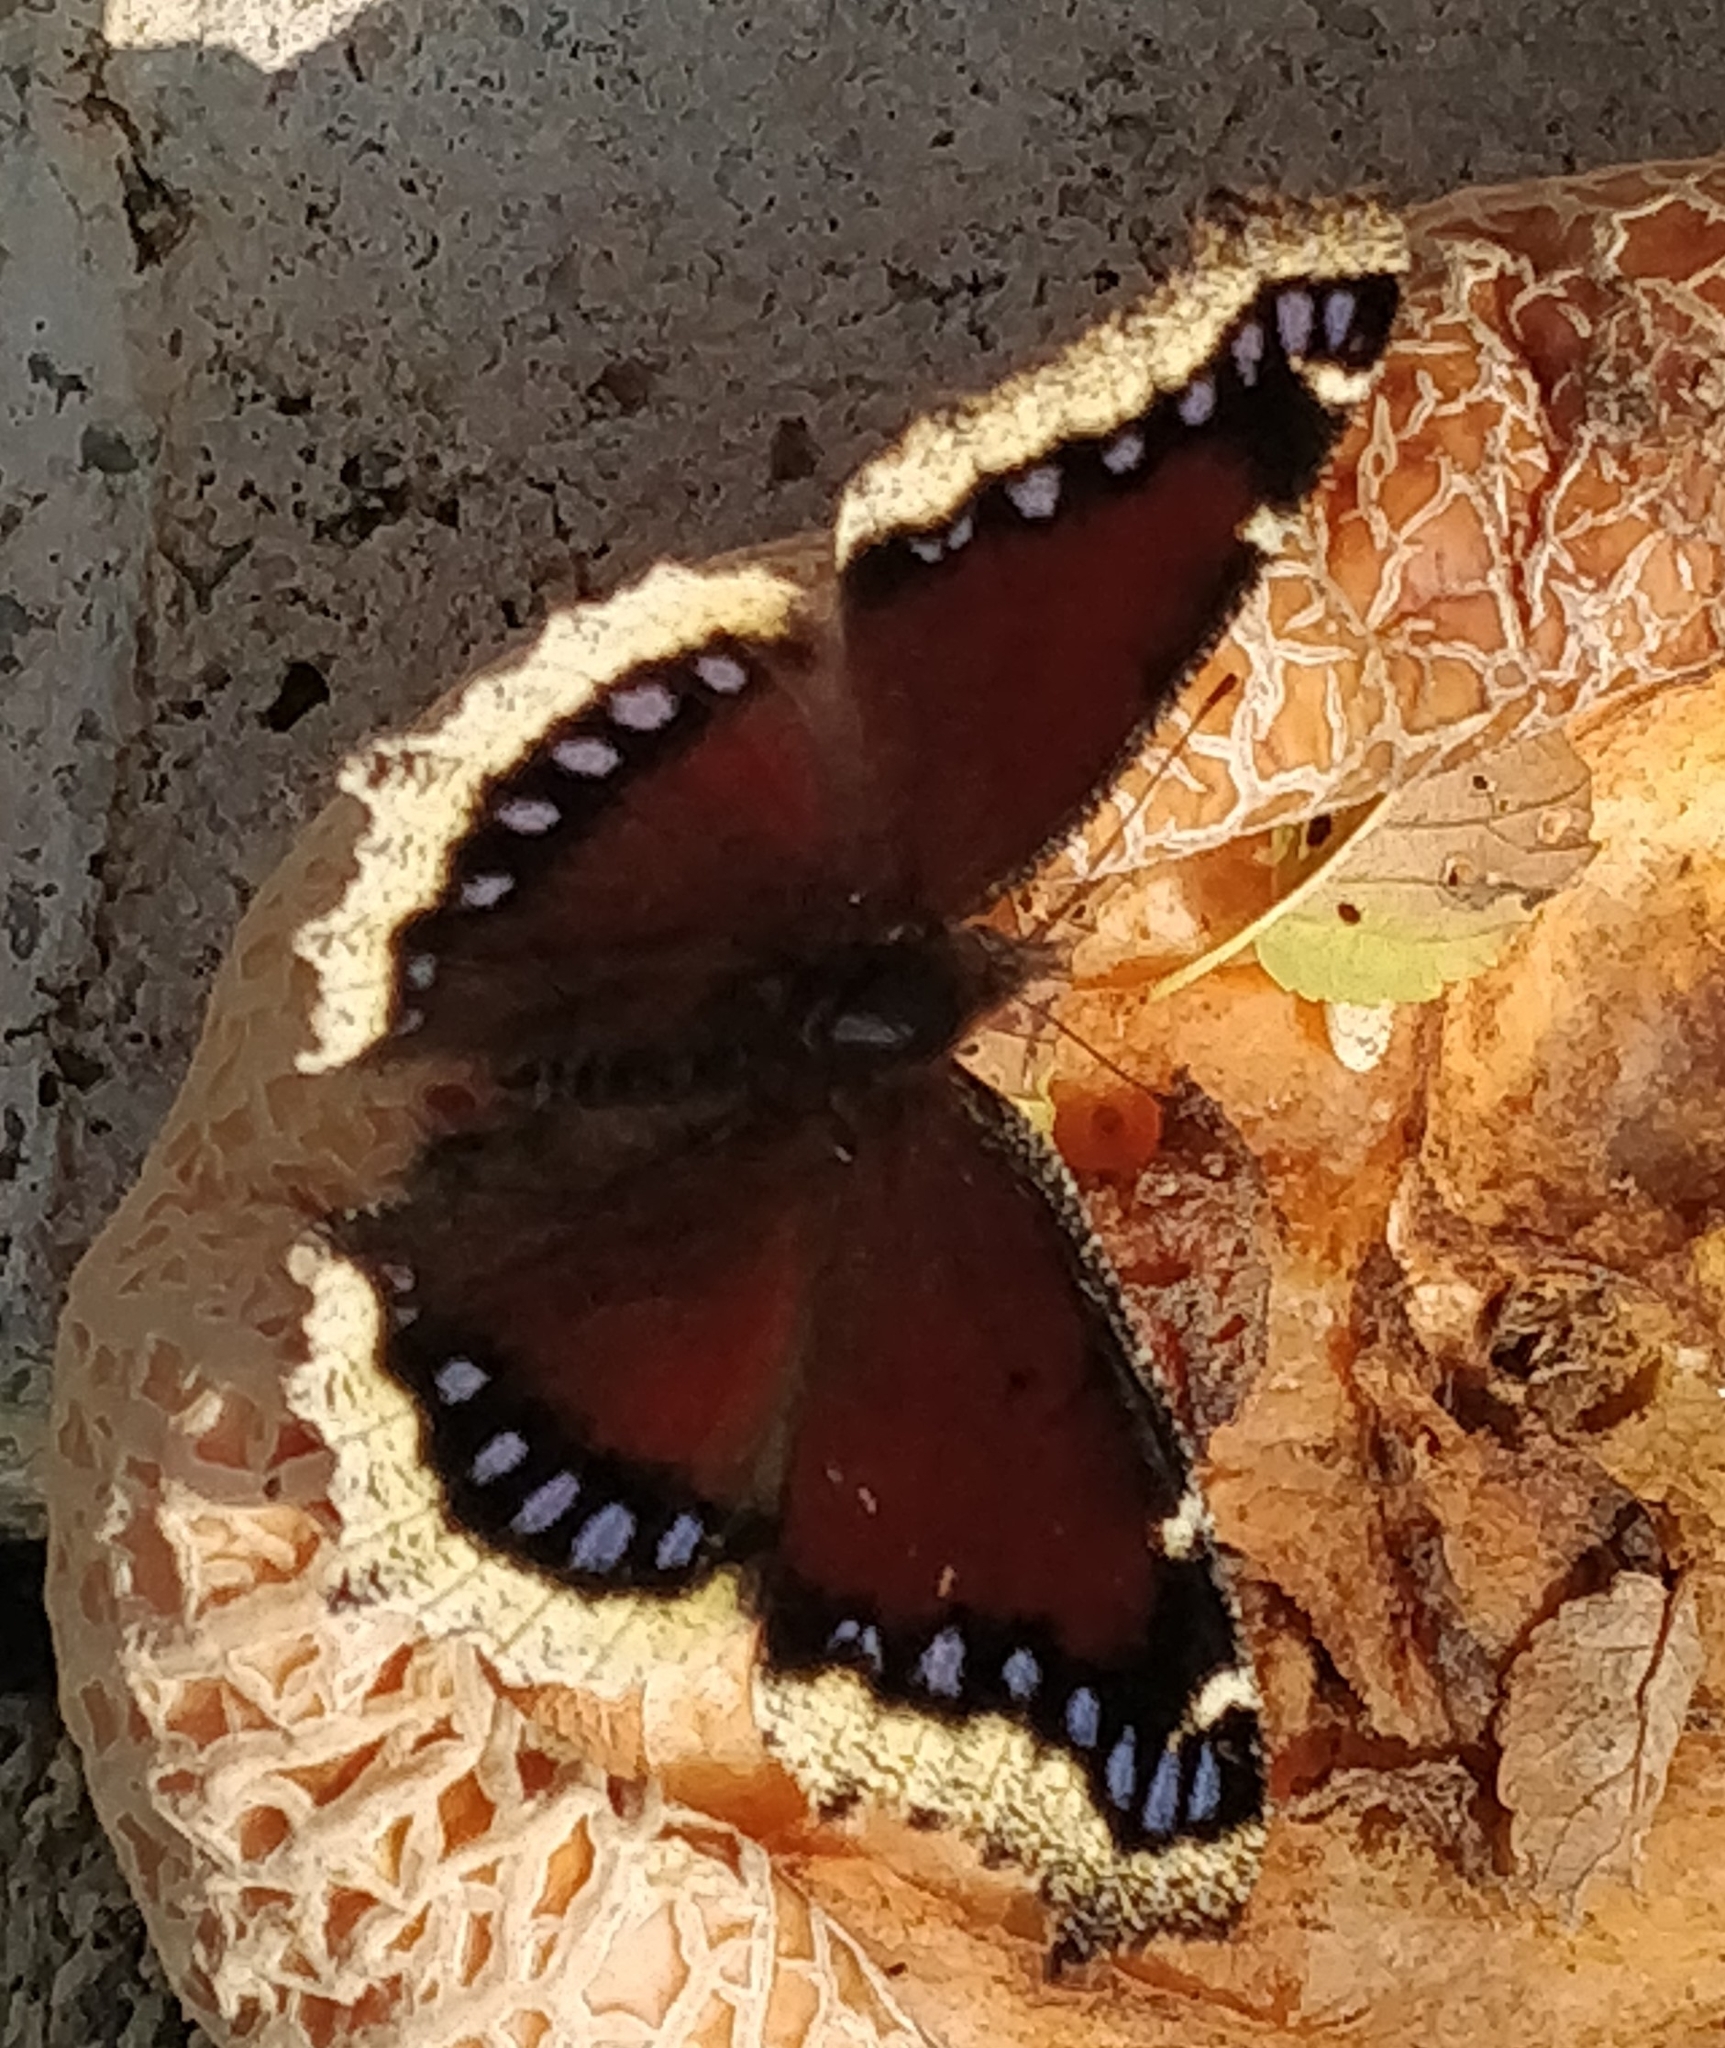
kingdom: Animalia
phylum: Arthropoda
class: Insecta
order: Lepidoptera
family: Nymphalidae
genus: Nymphalis
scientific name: Nymphalis antiopa
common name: Camberwell beauty
